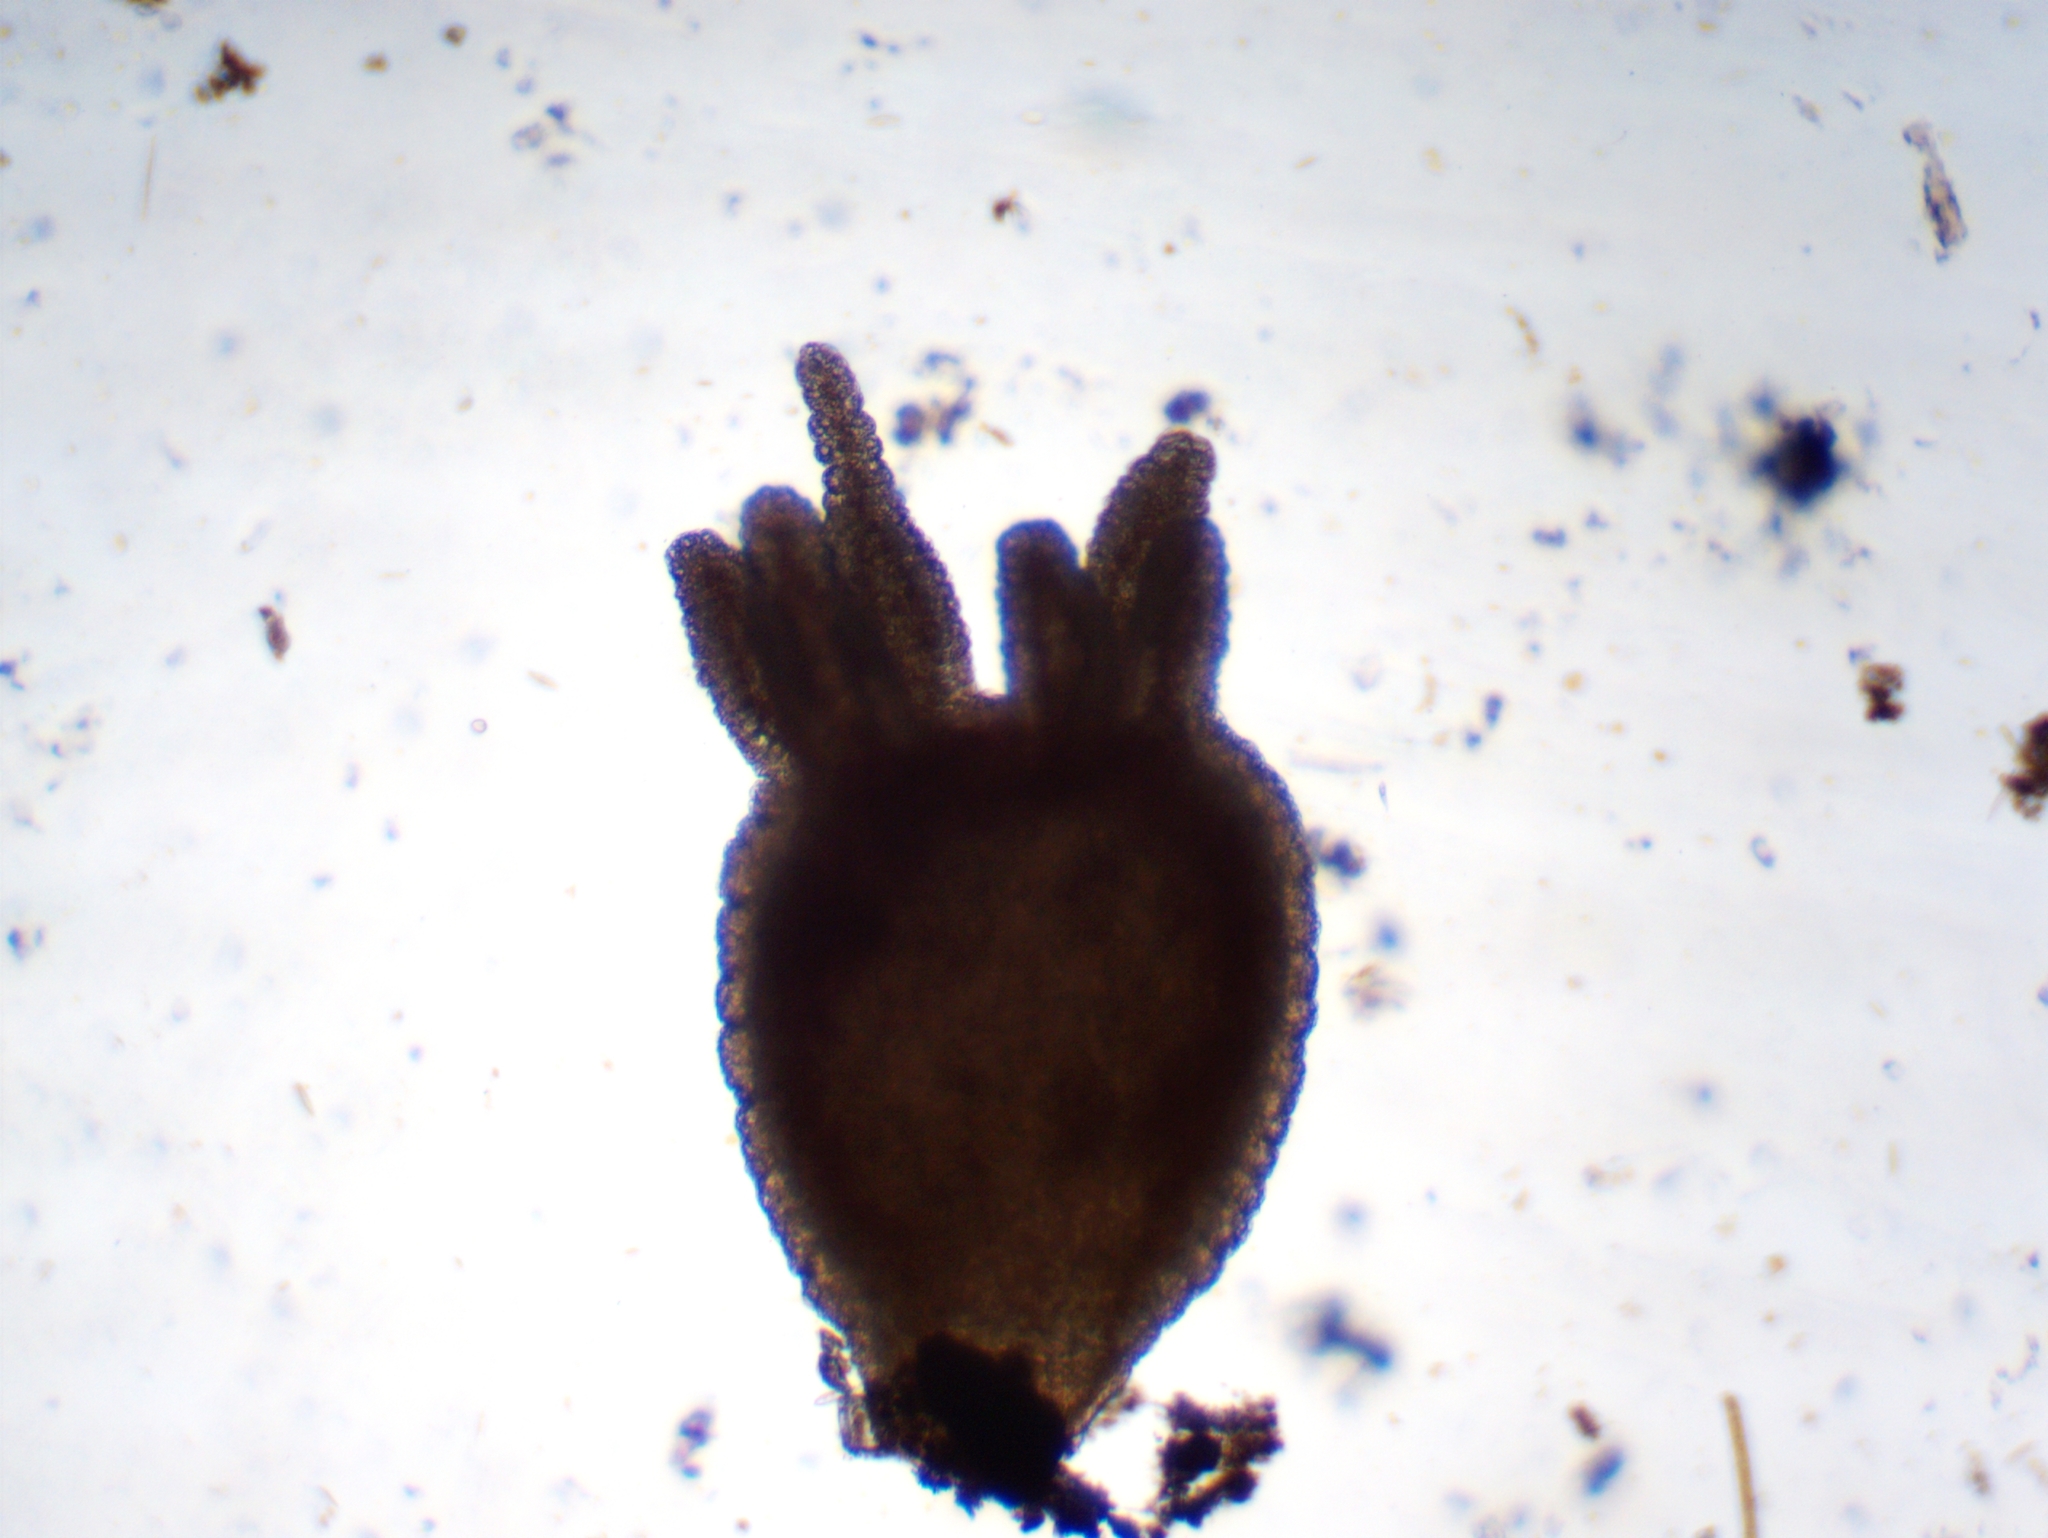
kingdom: Animalia
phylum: Cnidaria
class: Hydrozoa
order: Anthoathecata
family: Hydridae
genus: Hydra
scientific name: Hydra oligactis
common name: Brown hydra
